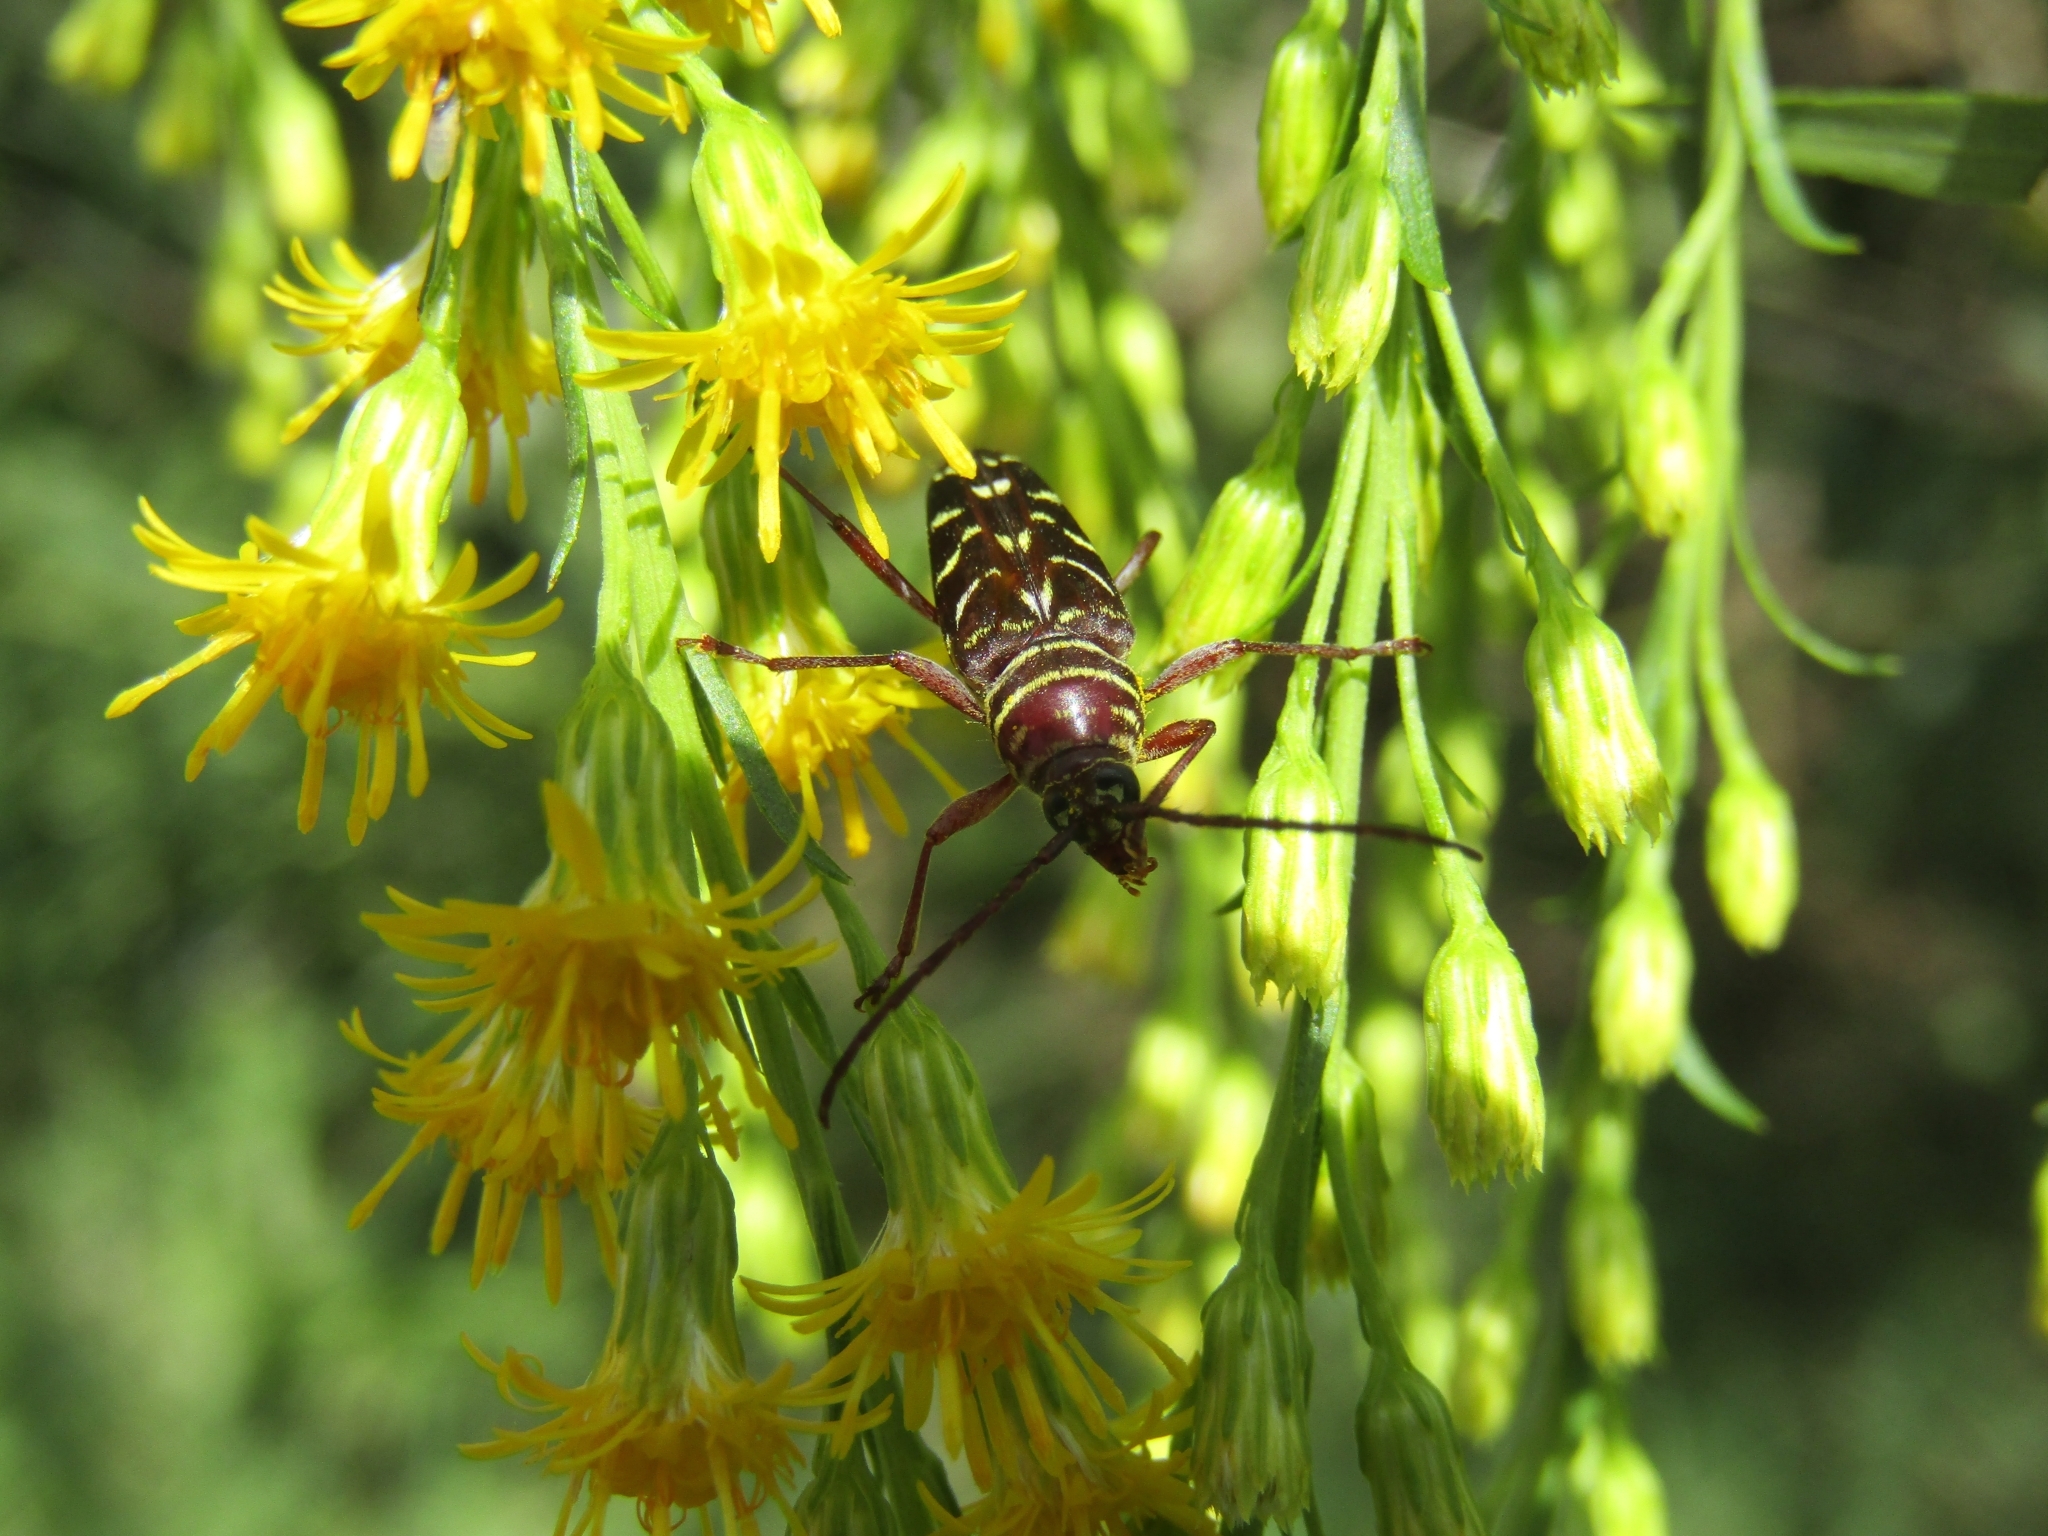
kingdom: Animalia
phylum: Arthropoda
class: Insecta
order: Coleoptera
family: Cerambycidae
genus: Megacyllene
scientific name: Megacyllene acuta
